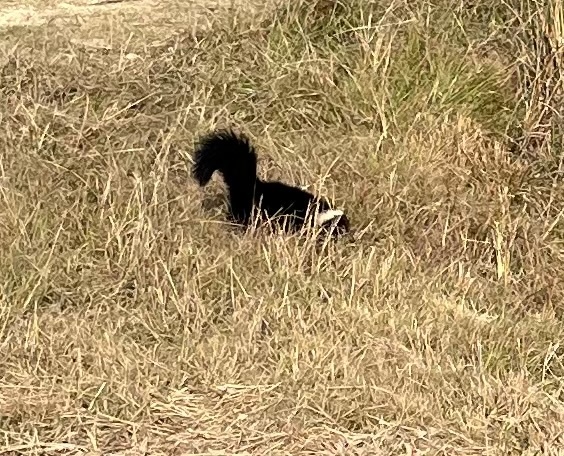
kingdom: Animalia
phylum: Chordata
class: Mammalia
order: Carnivora
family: Mephitidae
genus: Mephitis
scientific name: Mephitis mephitis
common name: Striped skunk
